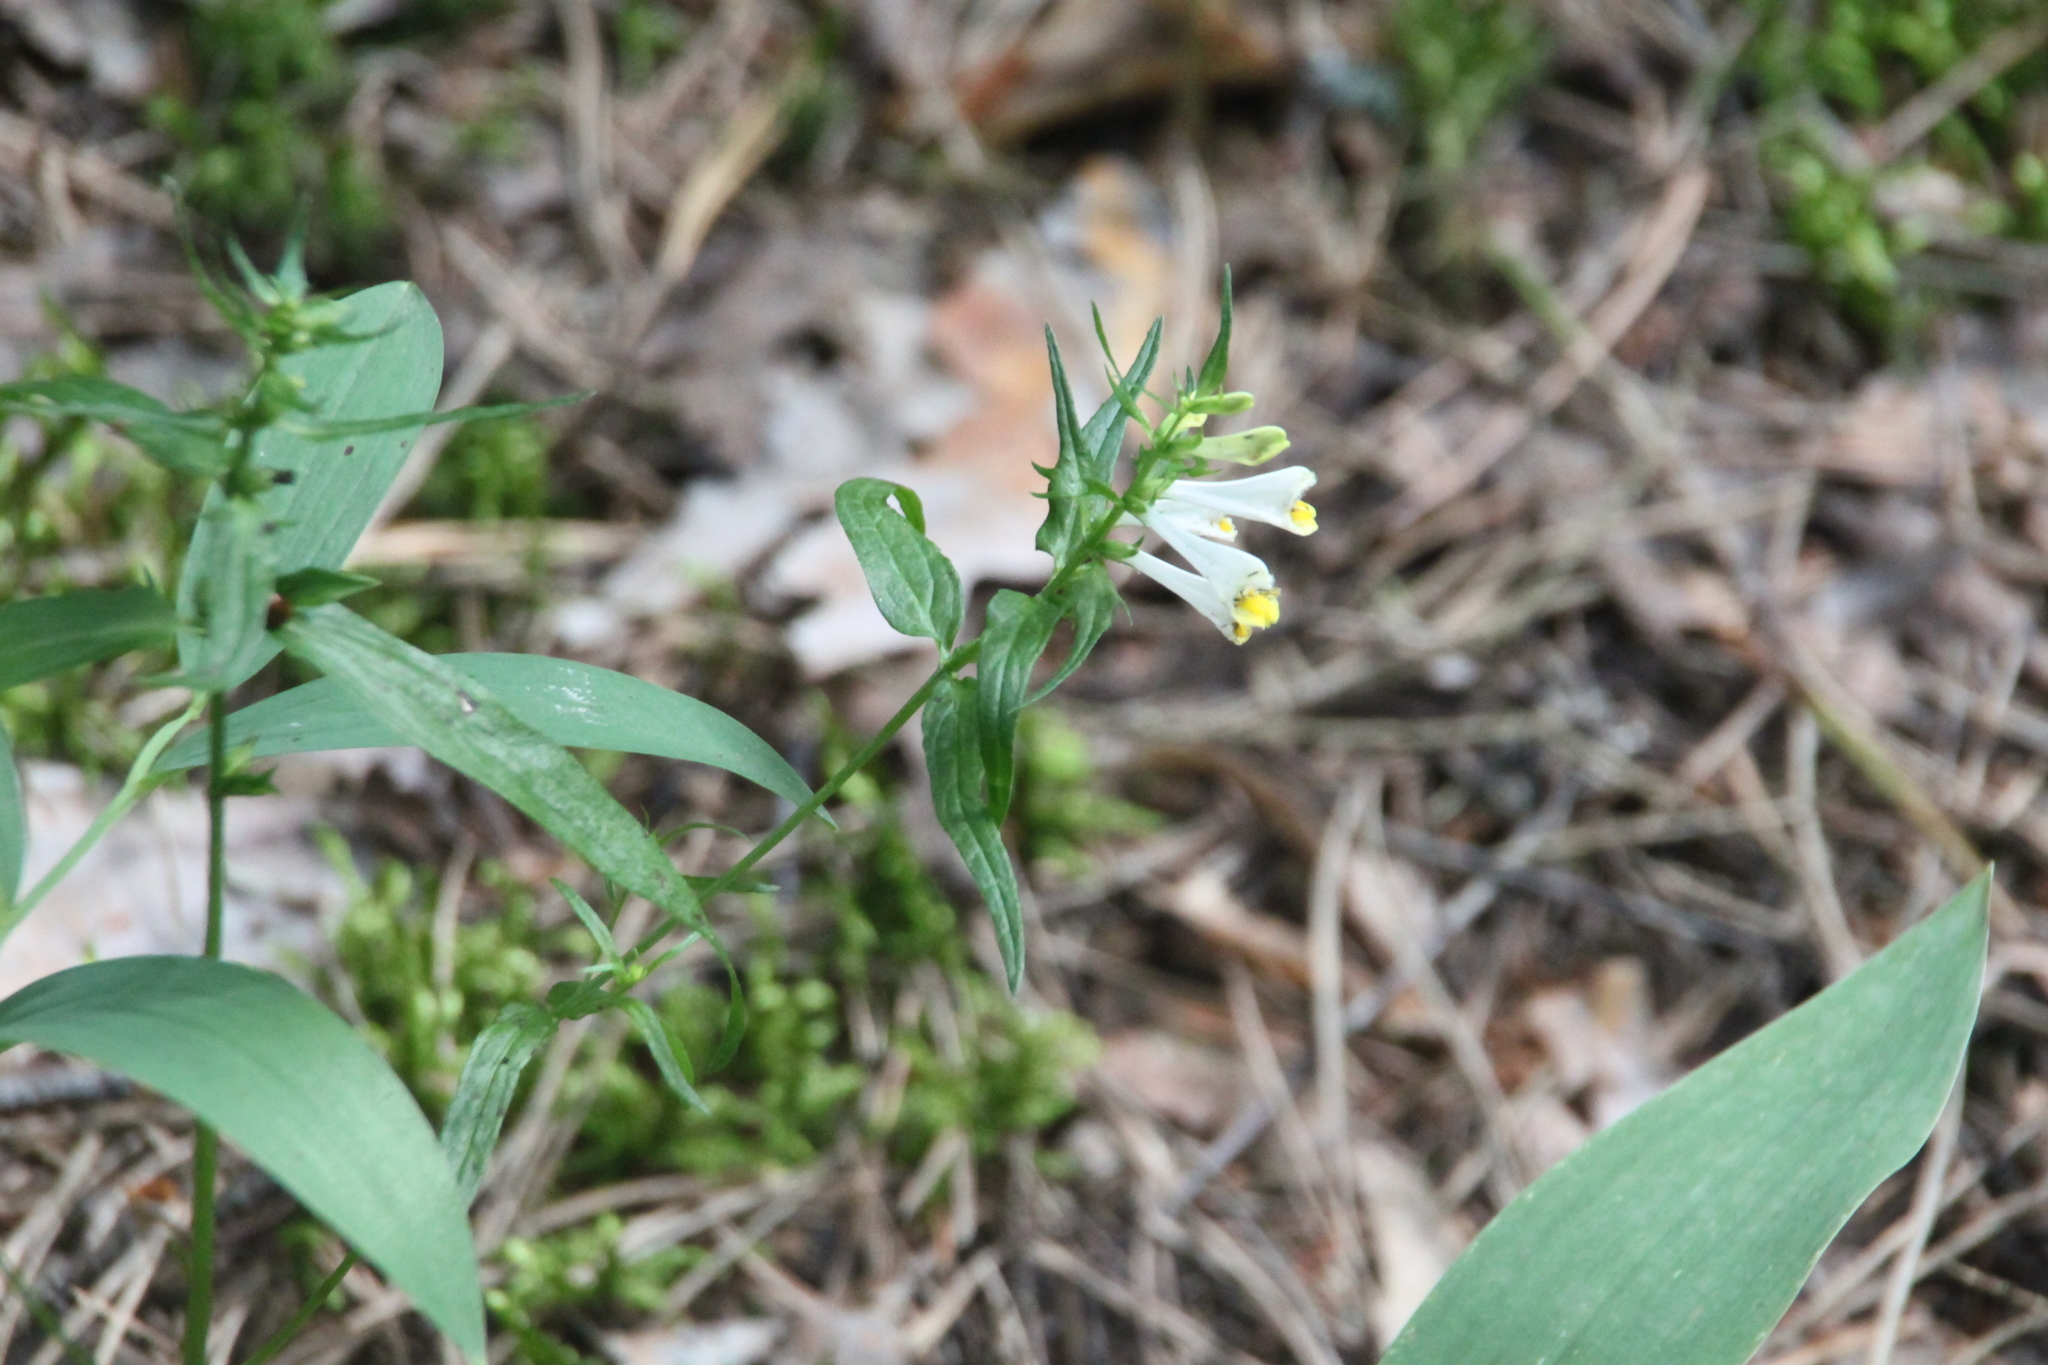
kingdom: Plantae
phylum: Tracheophyta
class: Magnoliopsida
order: Lamiales
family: Orobanchaceae
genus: Melampyrum
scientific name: Melampyrum pratense
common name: Common cow-wheat
